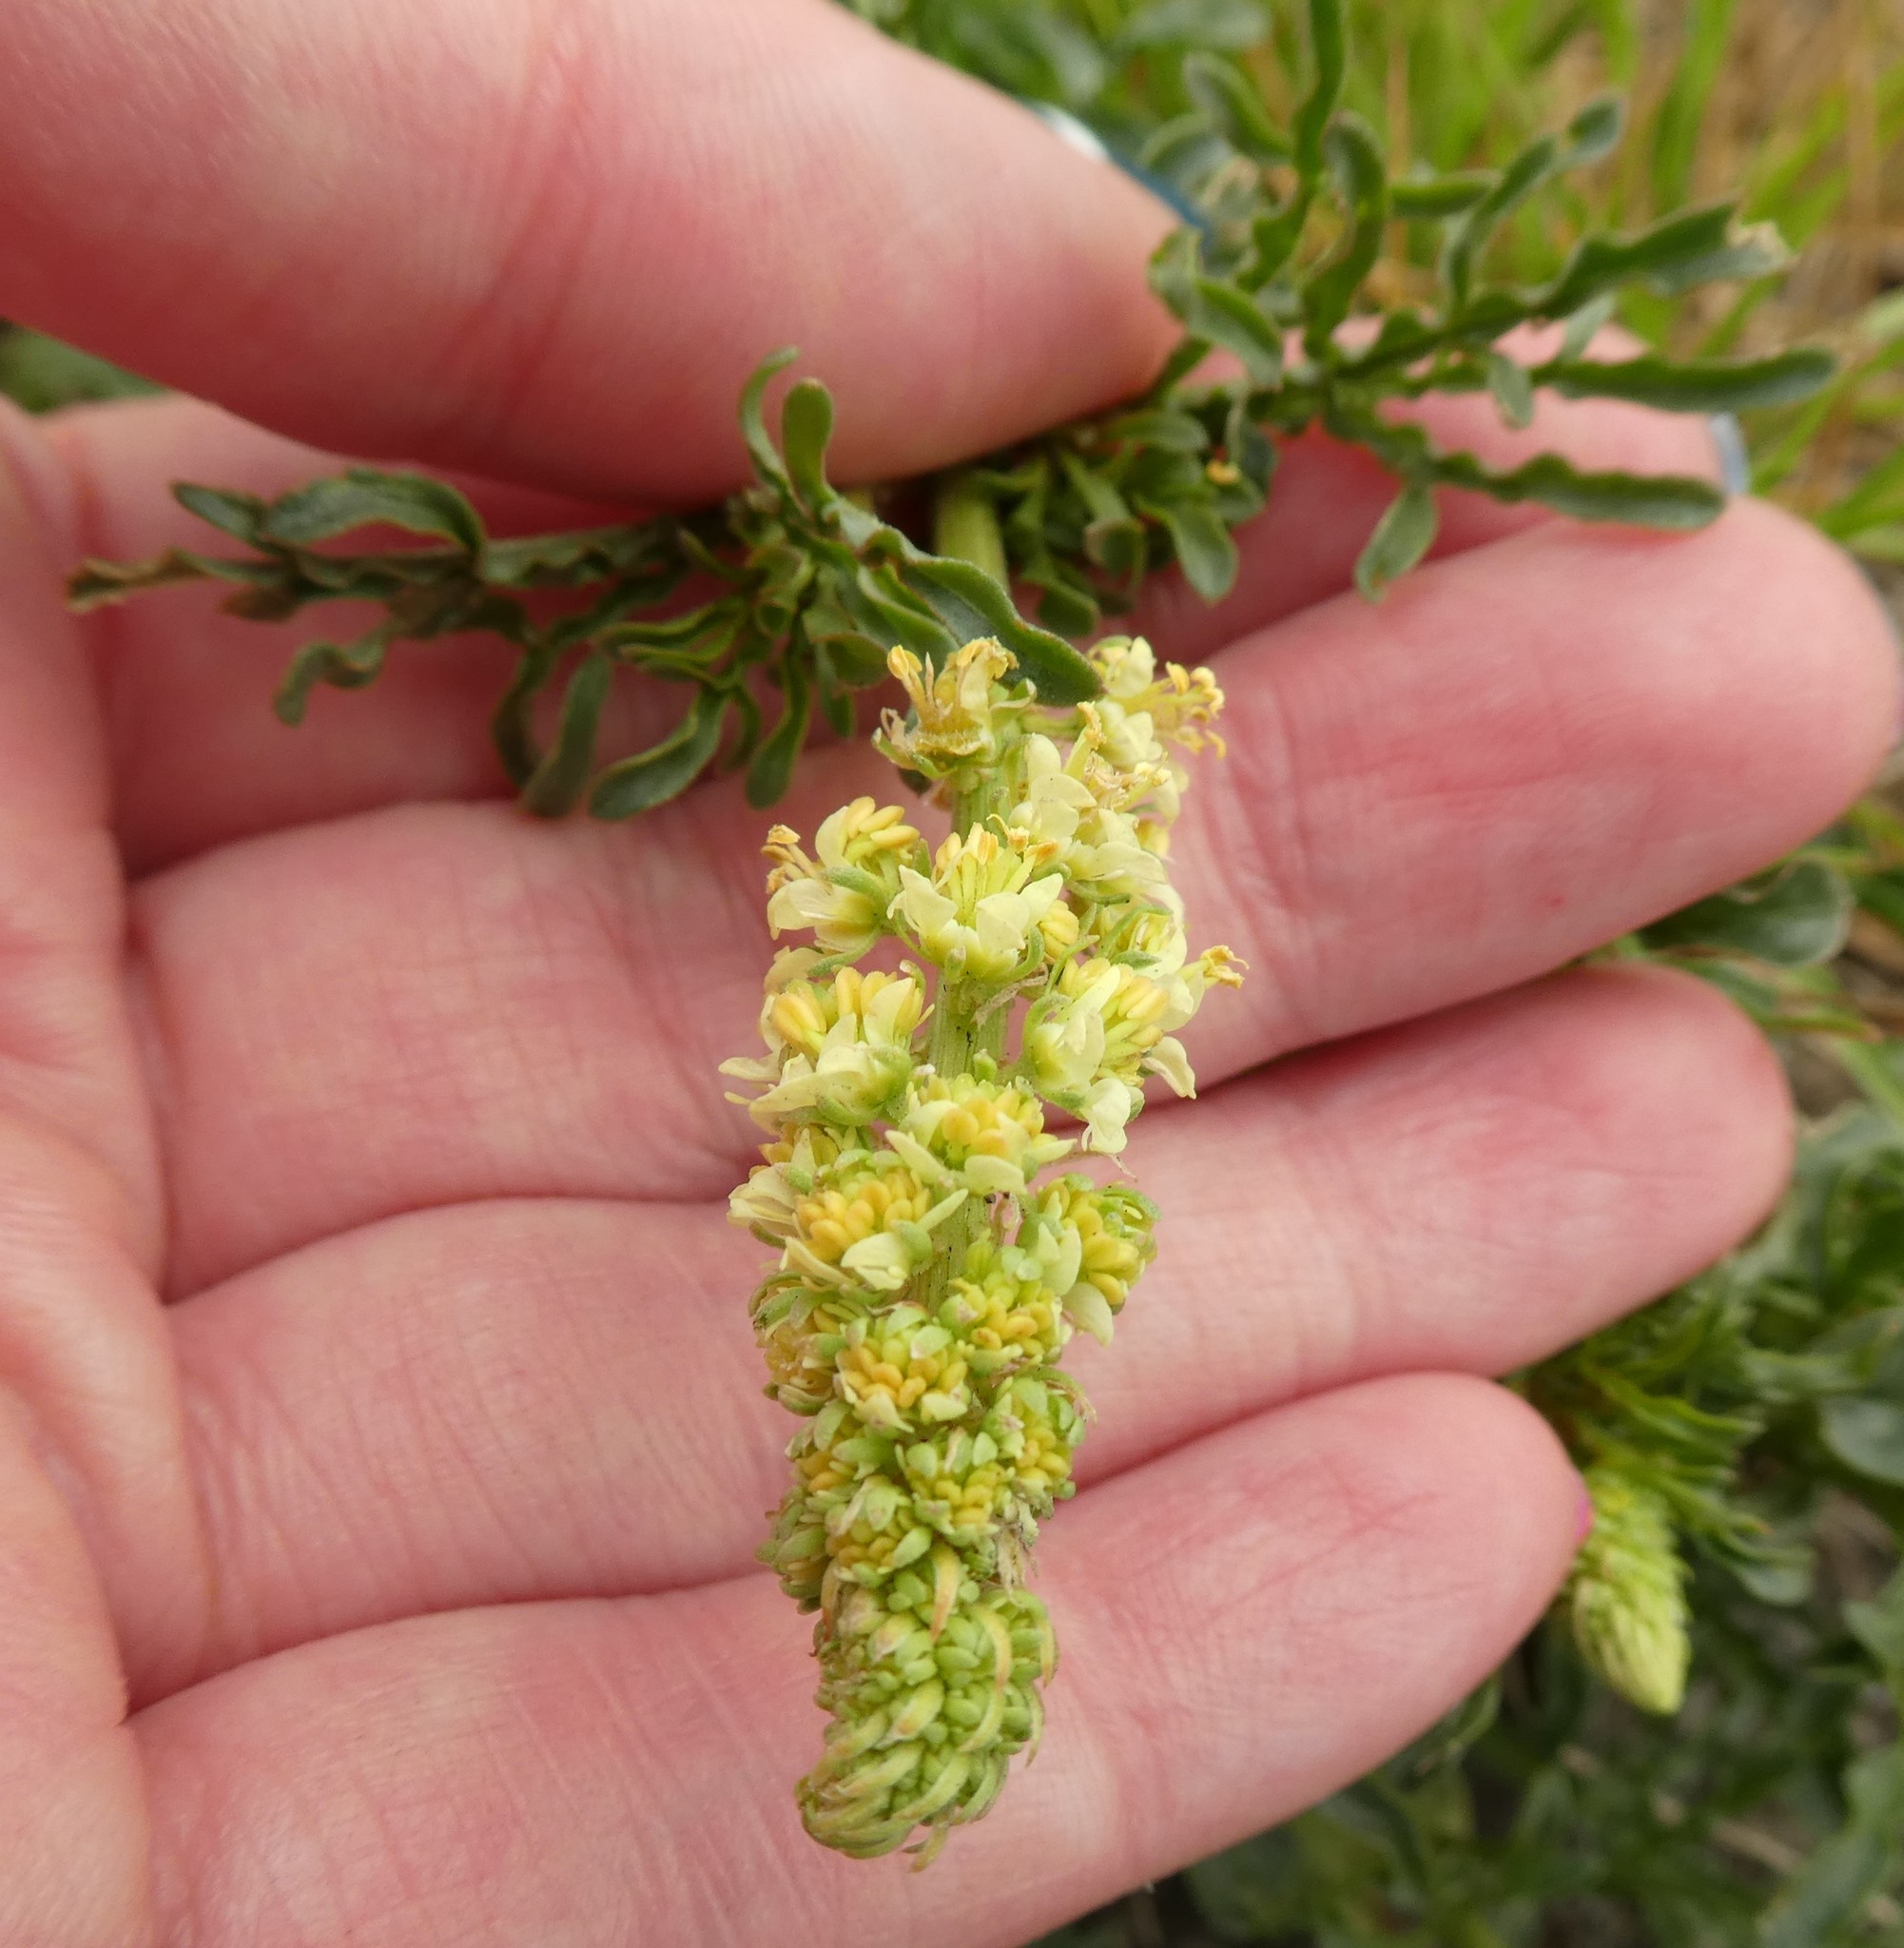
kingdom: Plantae
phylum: Tracheophyta
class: Magnoliopsida
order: Brassicales
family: Resedaceae
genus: Reseda
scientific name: Reseda lutea
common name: Wild mignonette
